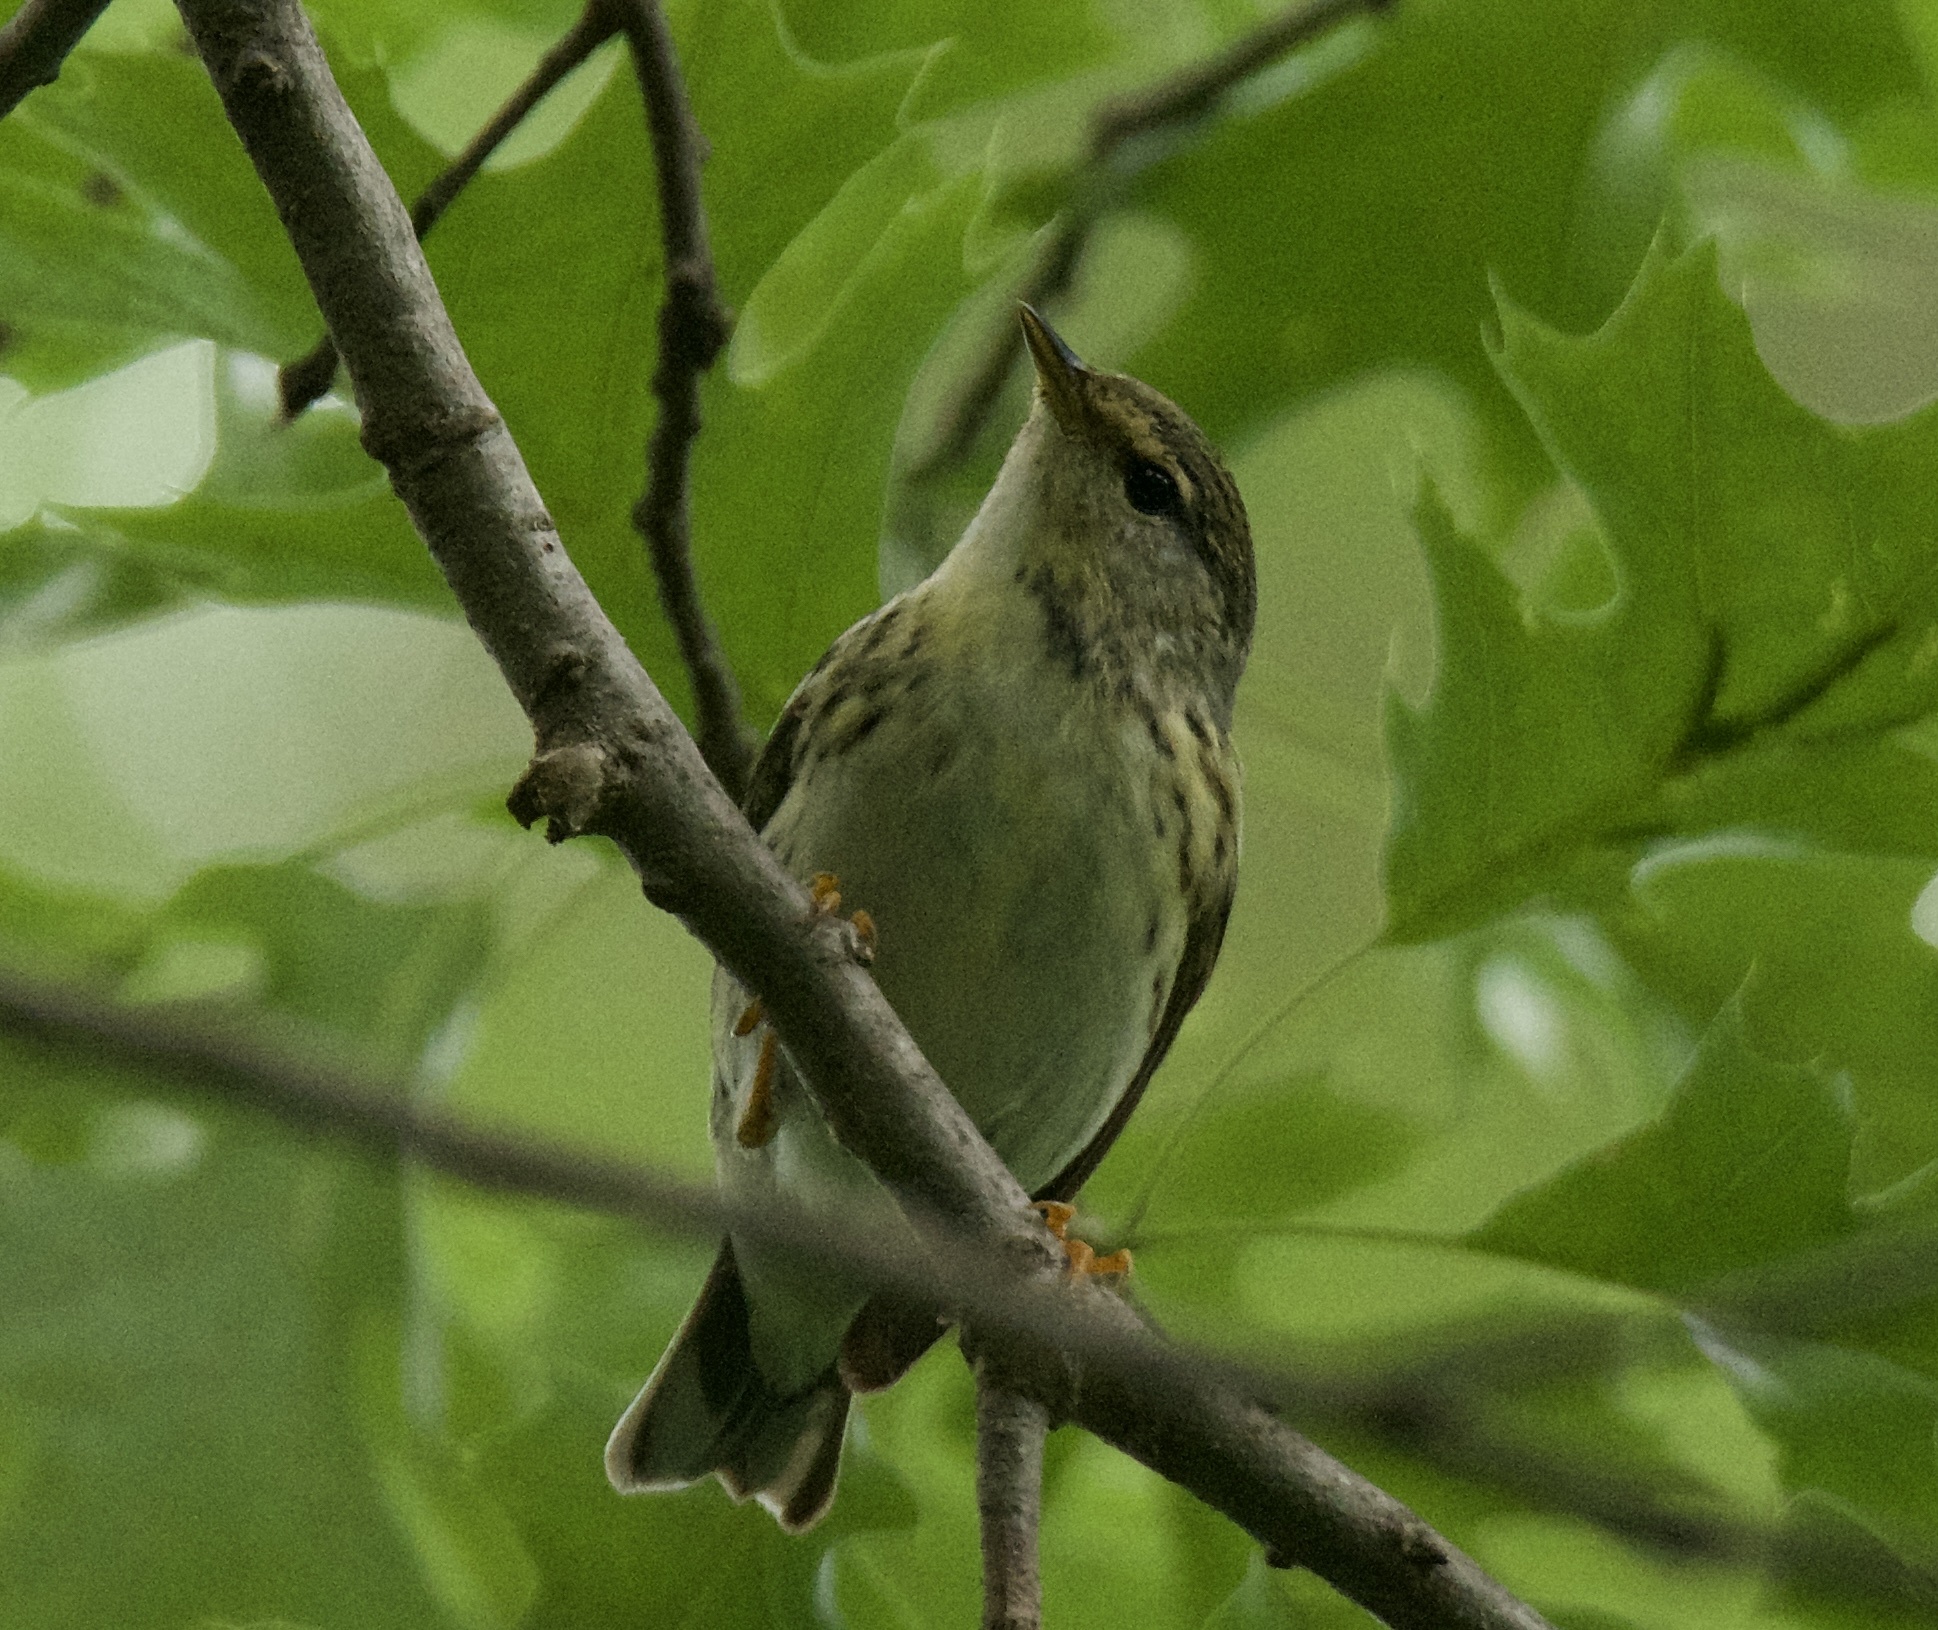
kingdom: Animalia
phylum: Chordata
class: Aves
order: Passeriformes
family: Parulidae
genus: Setophaga
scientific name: Setophaga striata
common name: Blackpoll warbler
